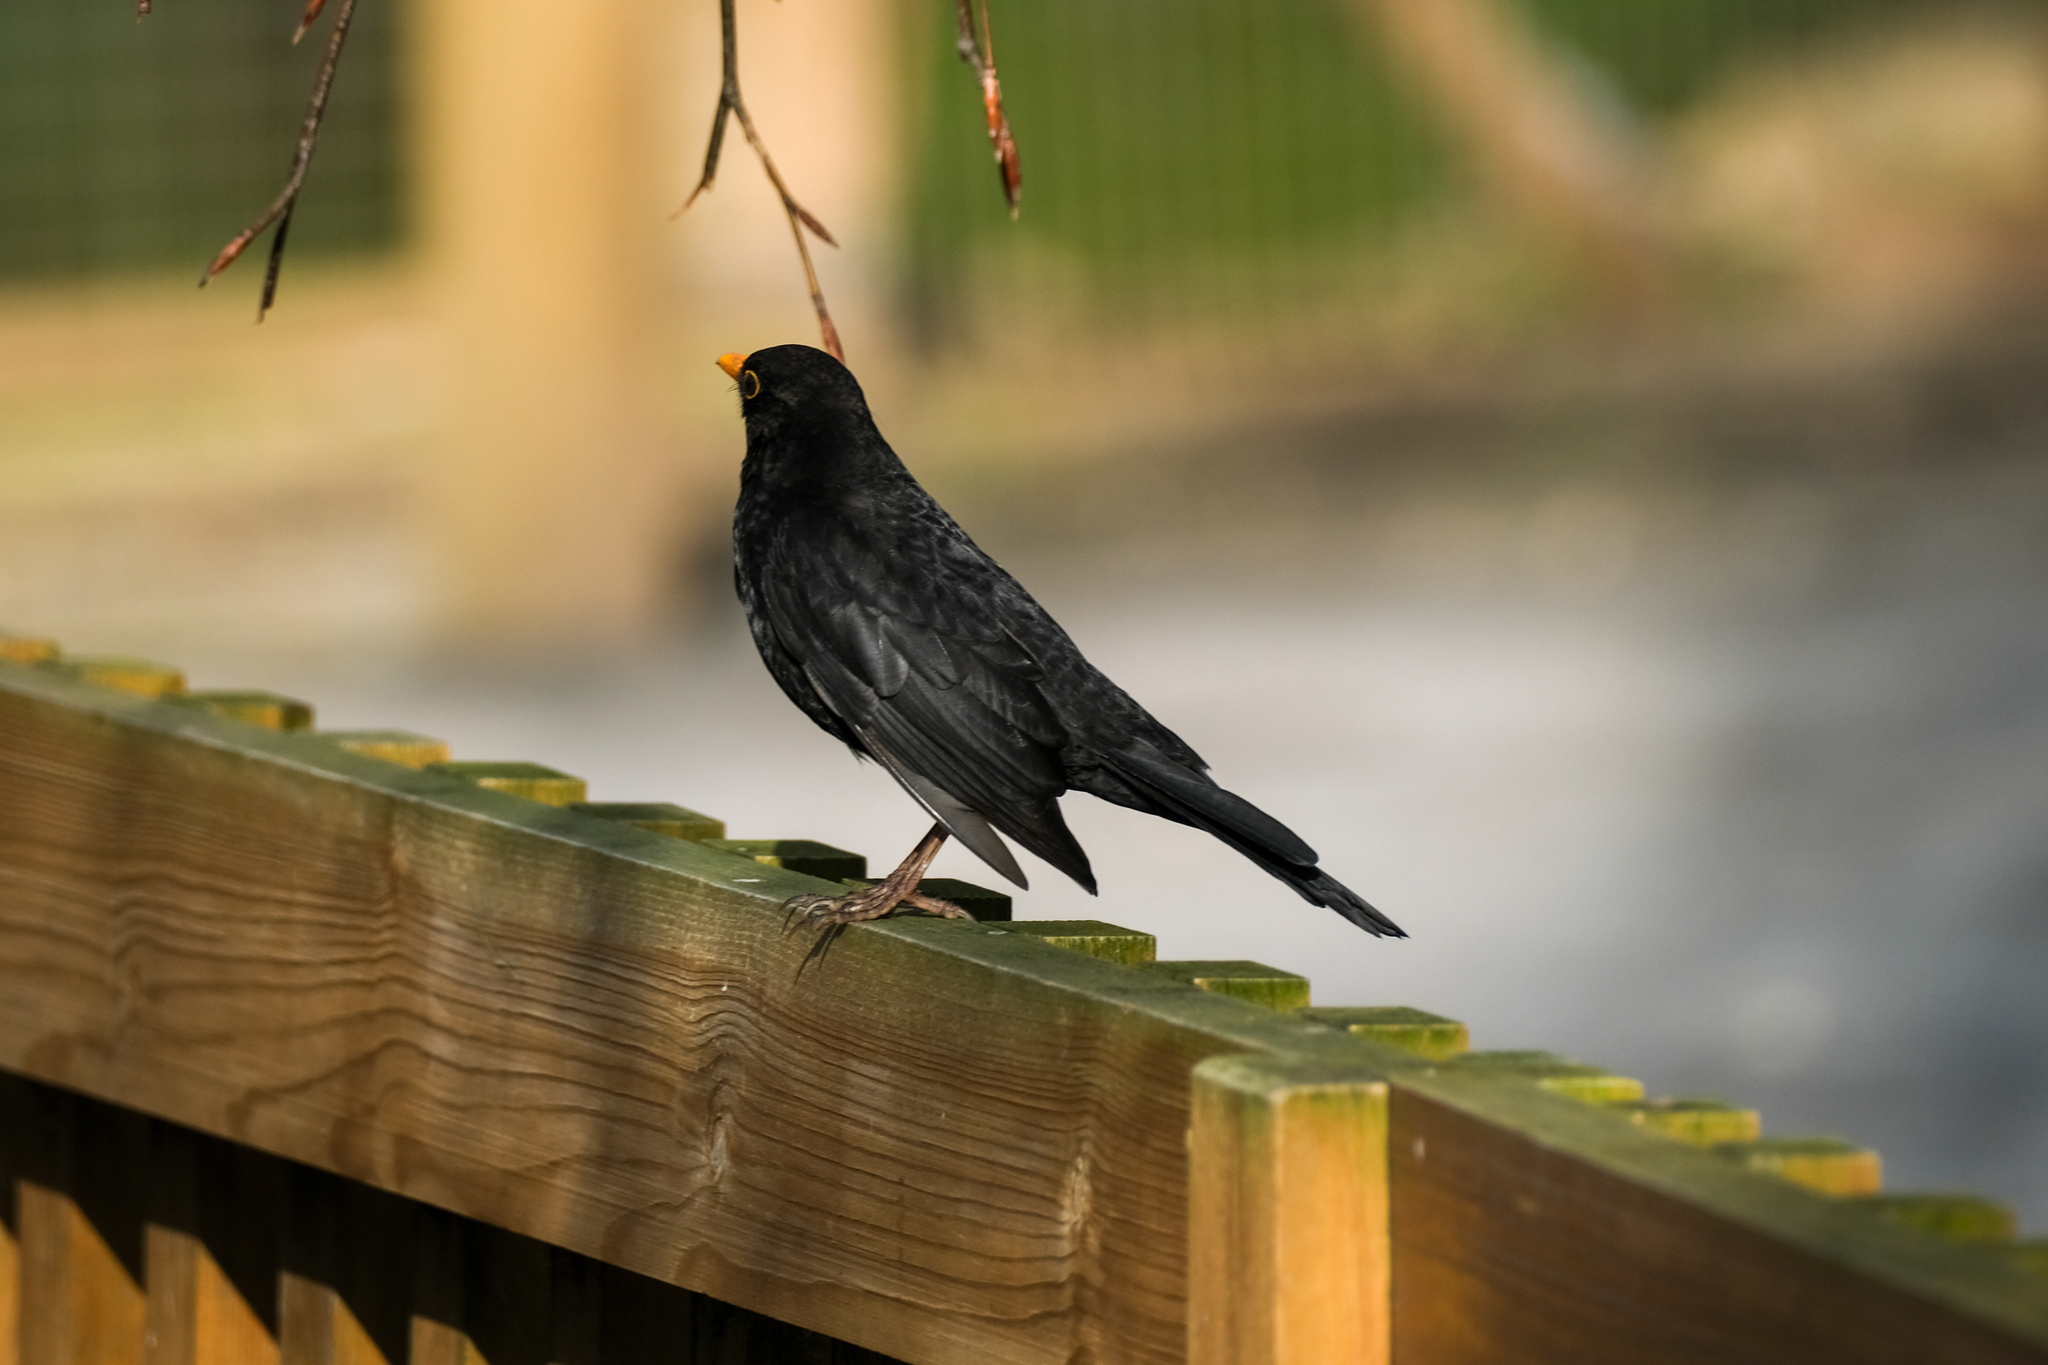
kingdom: Animalia
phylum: Chordata
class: Aves
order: Passeriformes
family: Turdidae
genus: Turdus
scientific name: Turdus merula
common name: Common blackbird
